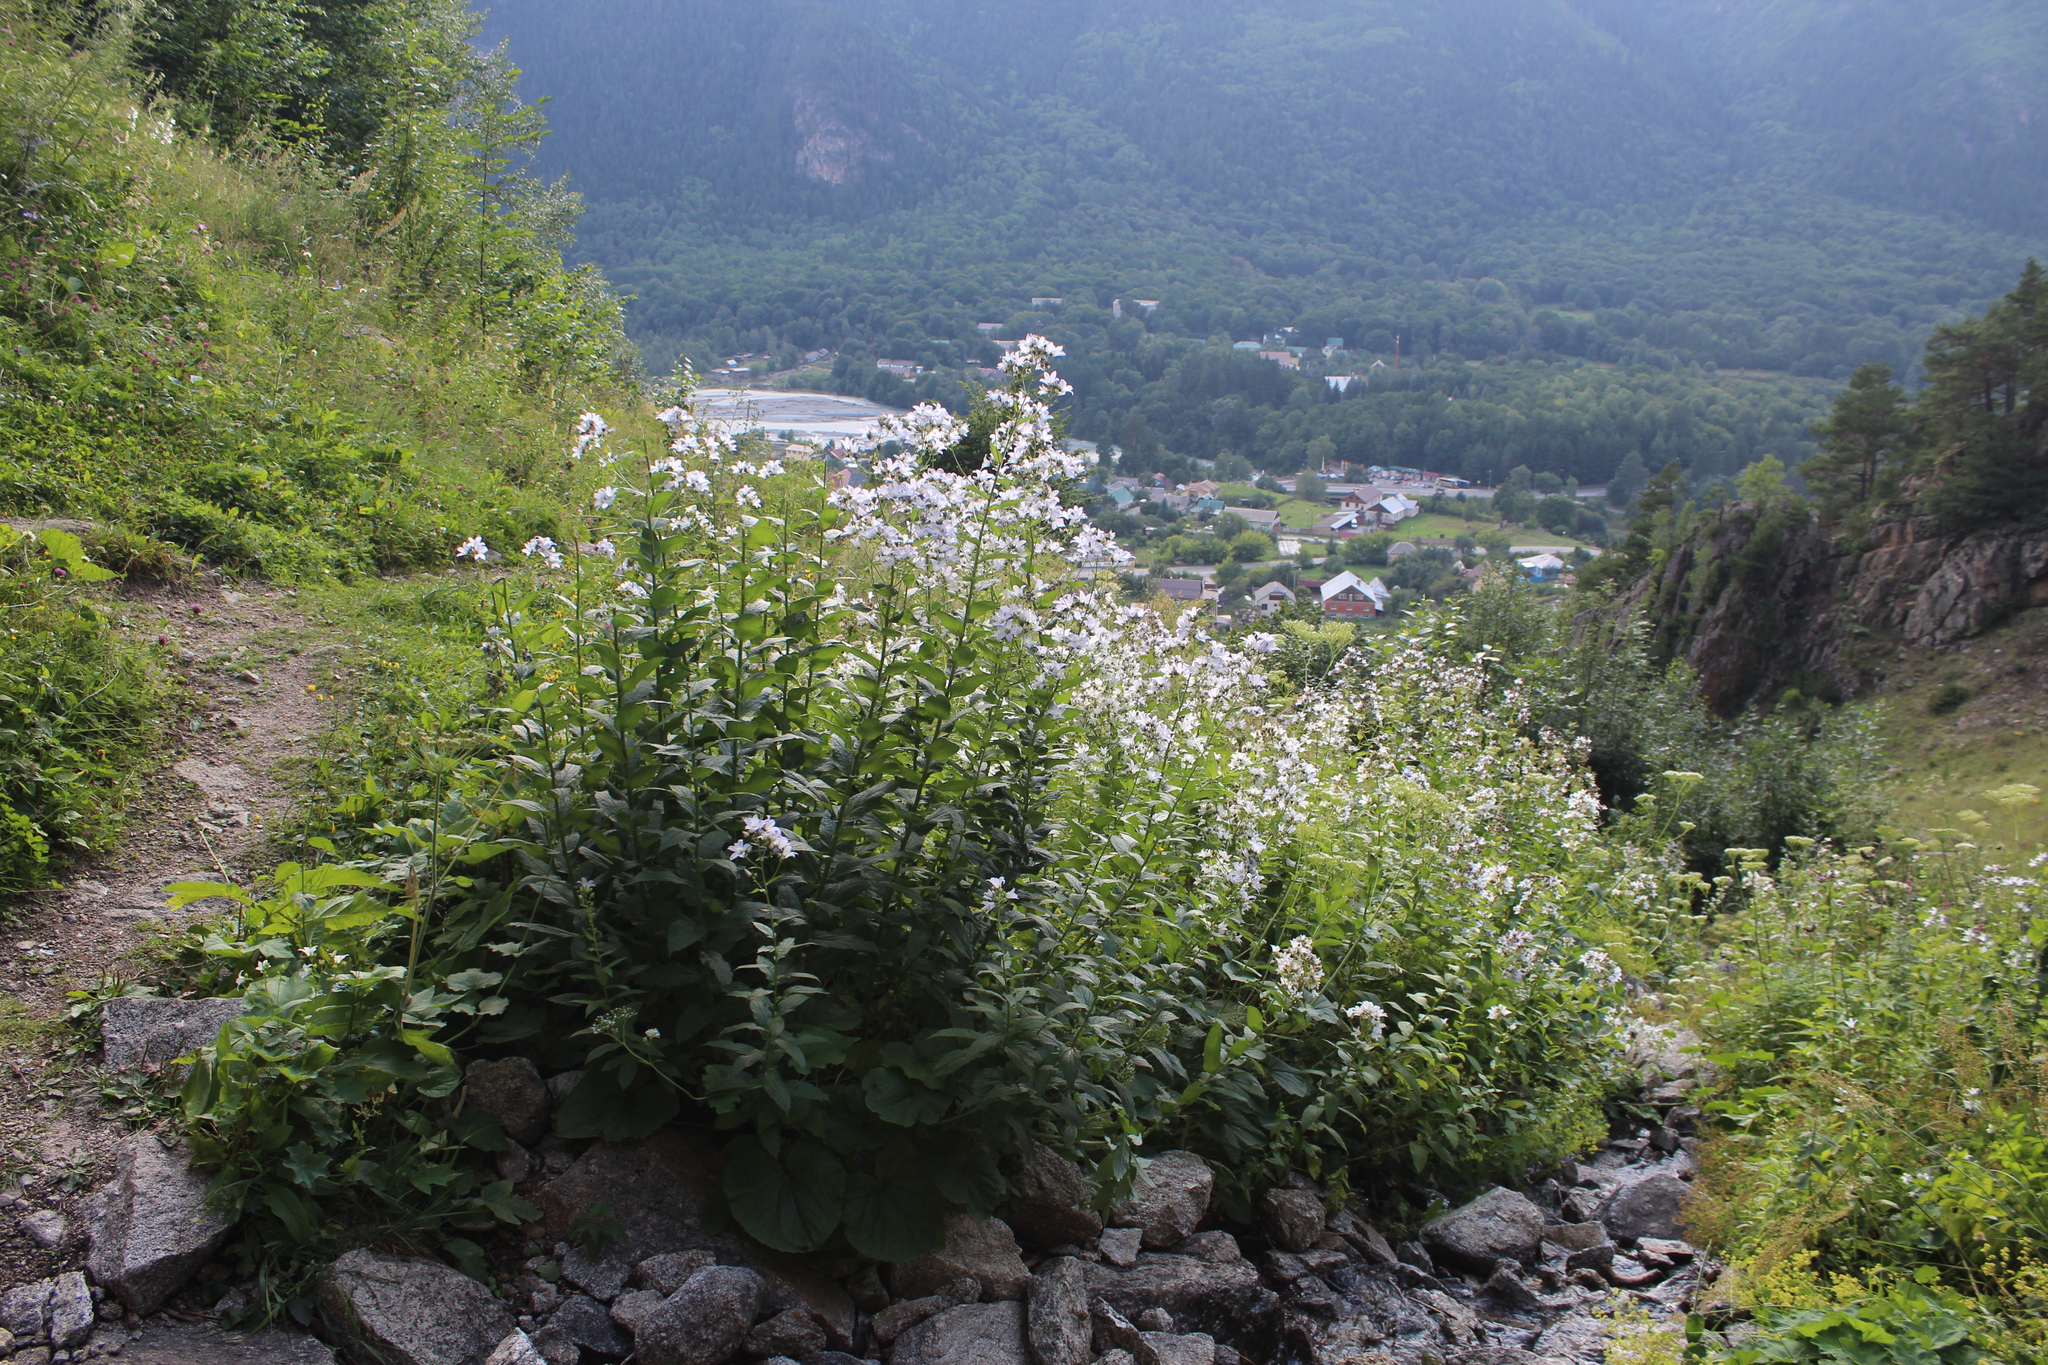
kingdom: Plantae
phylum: Tracheophyta
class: Magnoliopsida
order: Asterales
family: Campanulaceae
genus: Campanula
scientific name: Campanula lactiflora
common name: Milky bellflower
